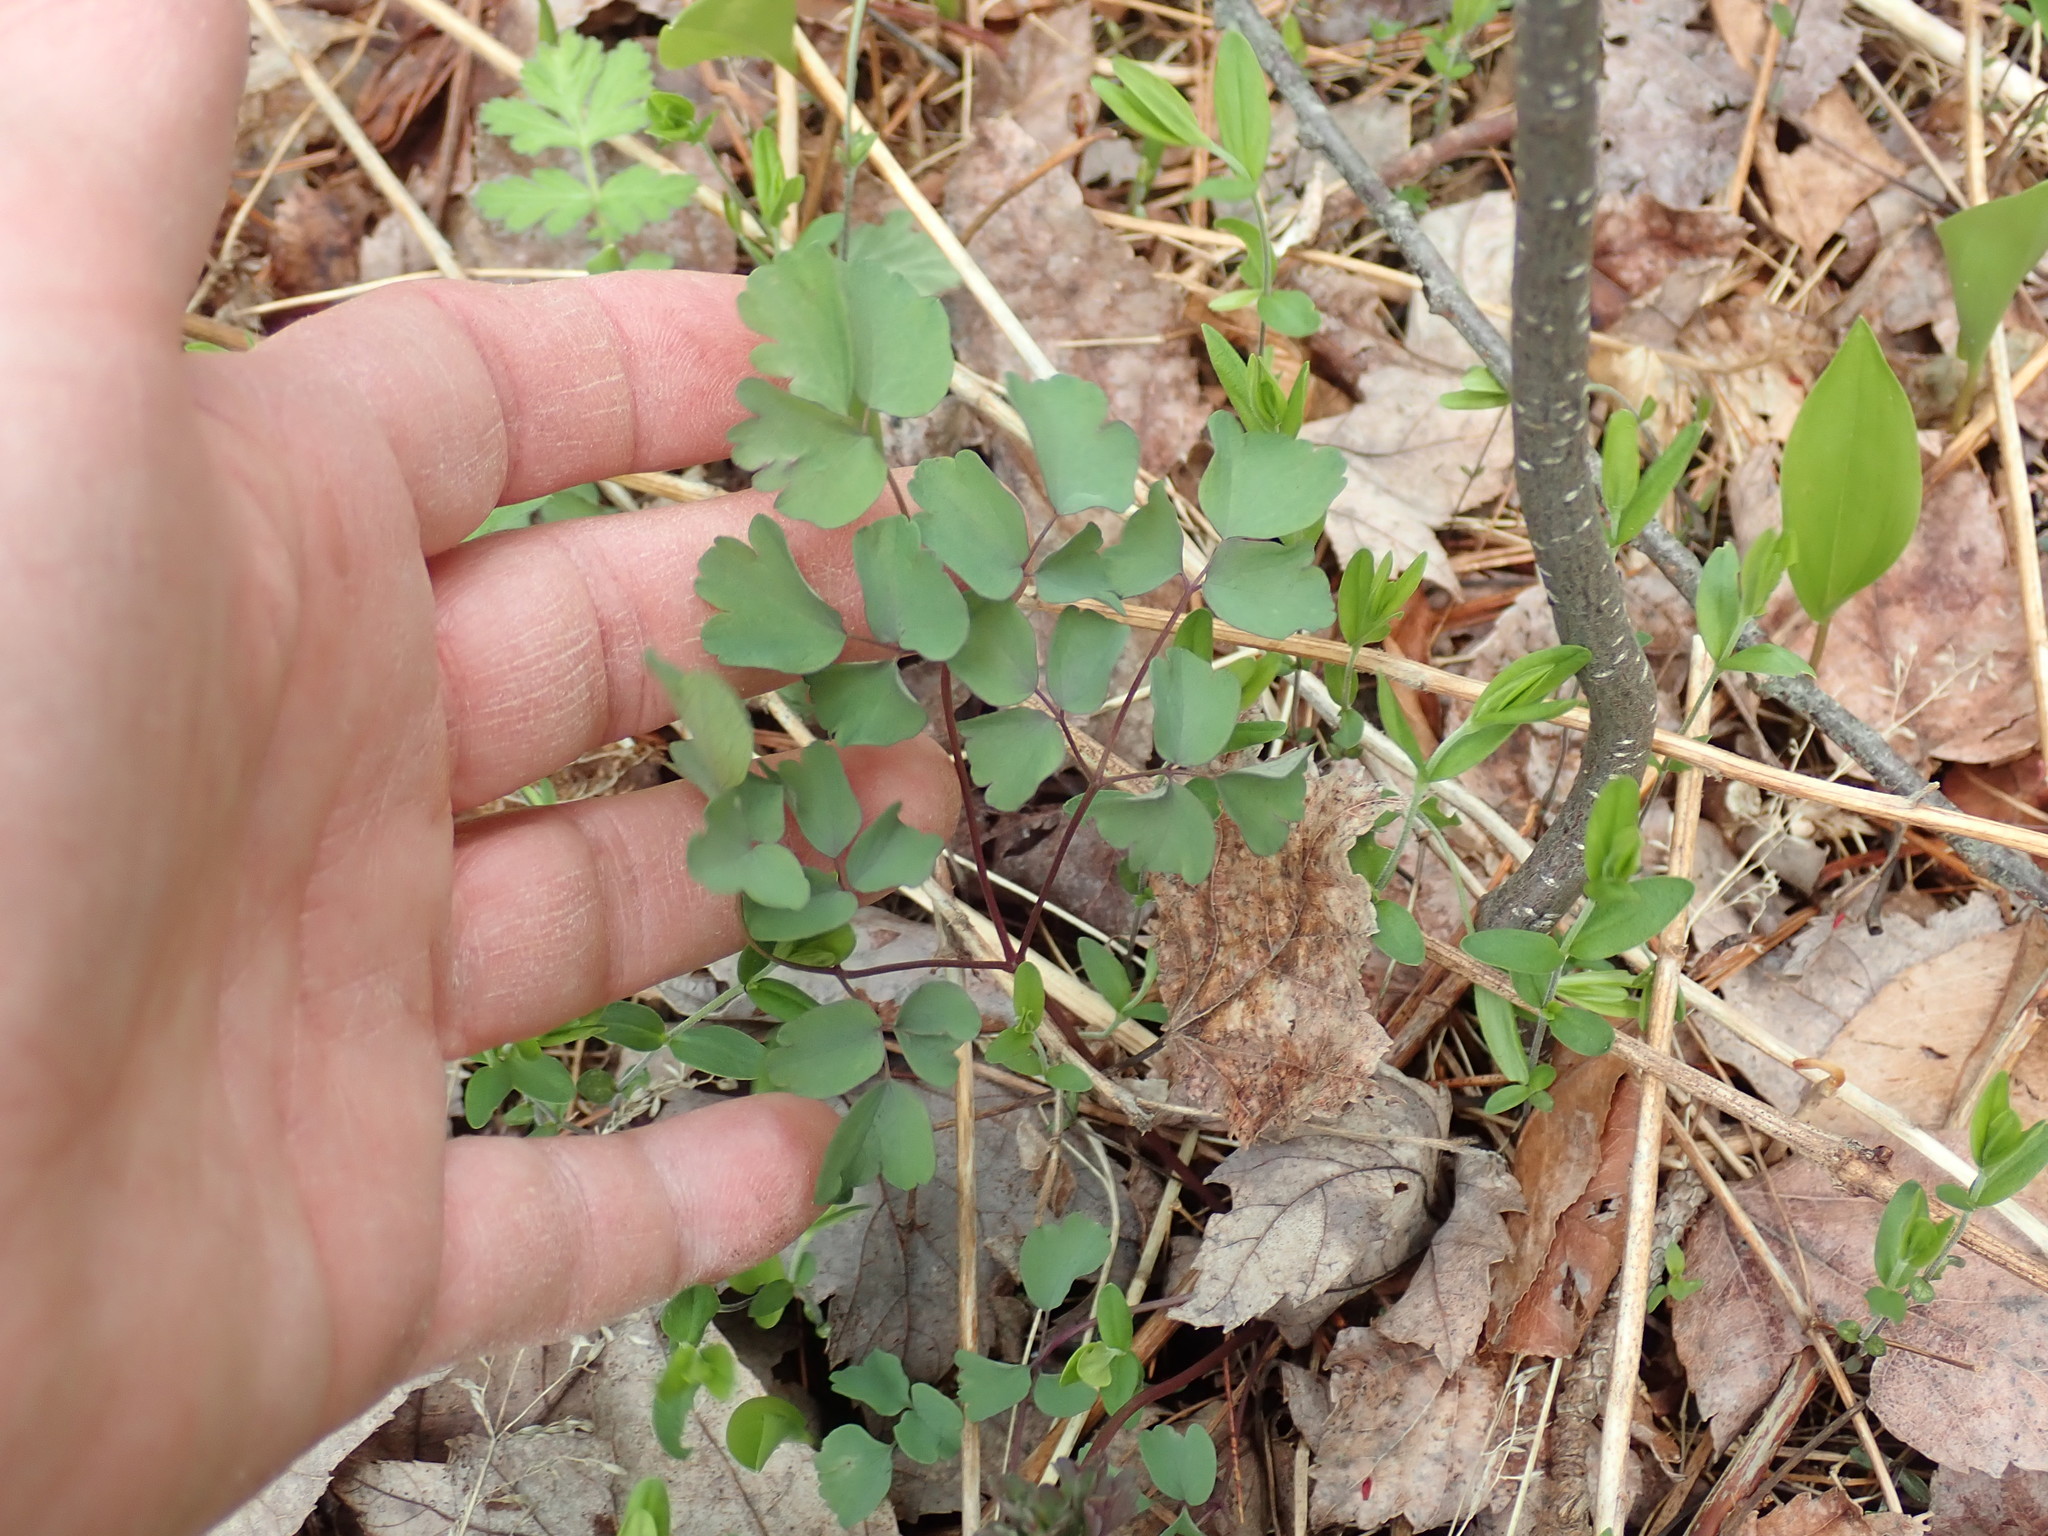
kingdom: Plantae
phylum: Tracheophyta
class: Magnoliopsida
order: Ranunculales
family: Ranunculaceae
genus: Thalictrum
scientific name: Thalictrum
